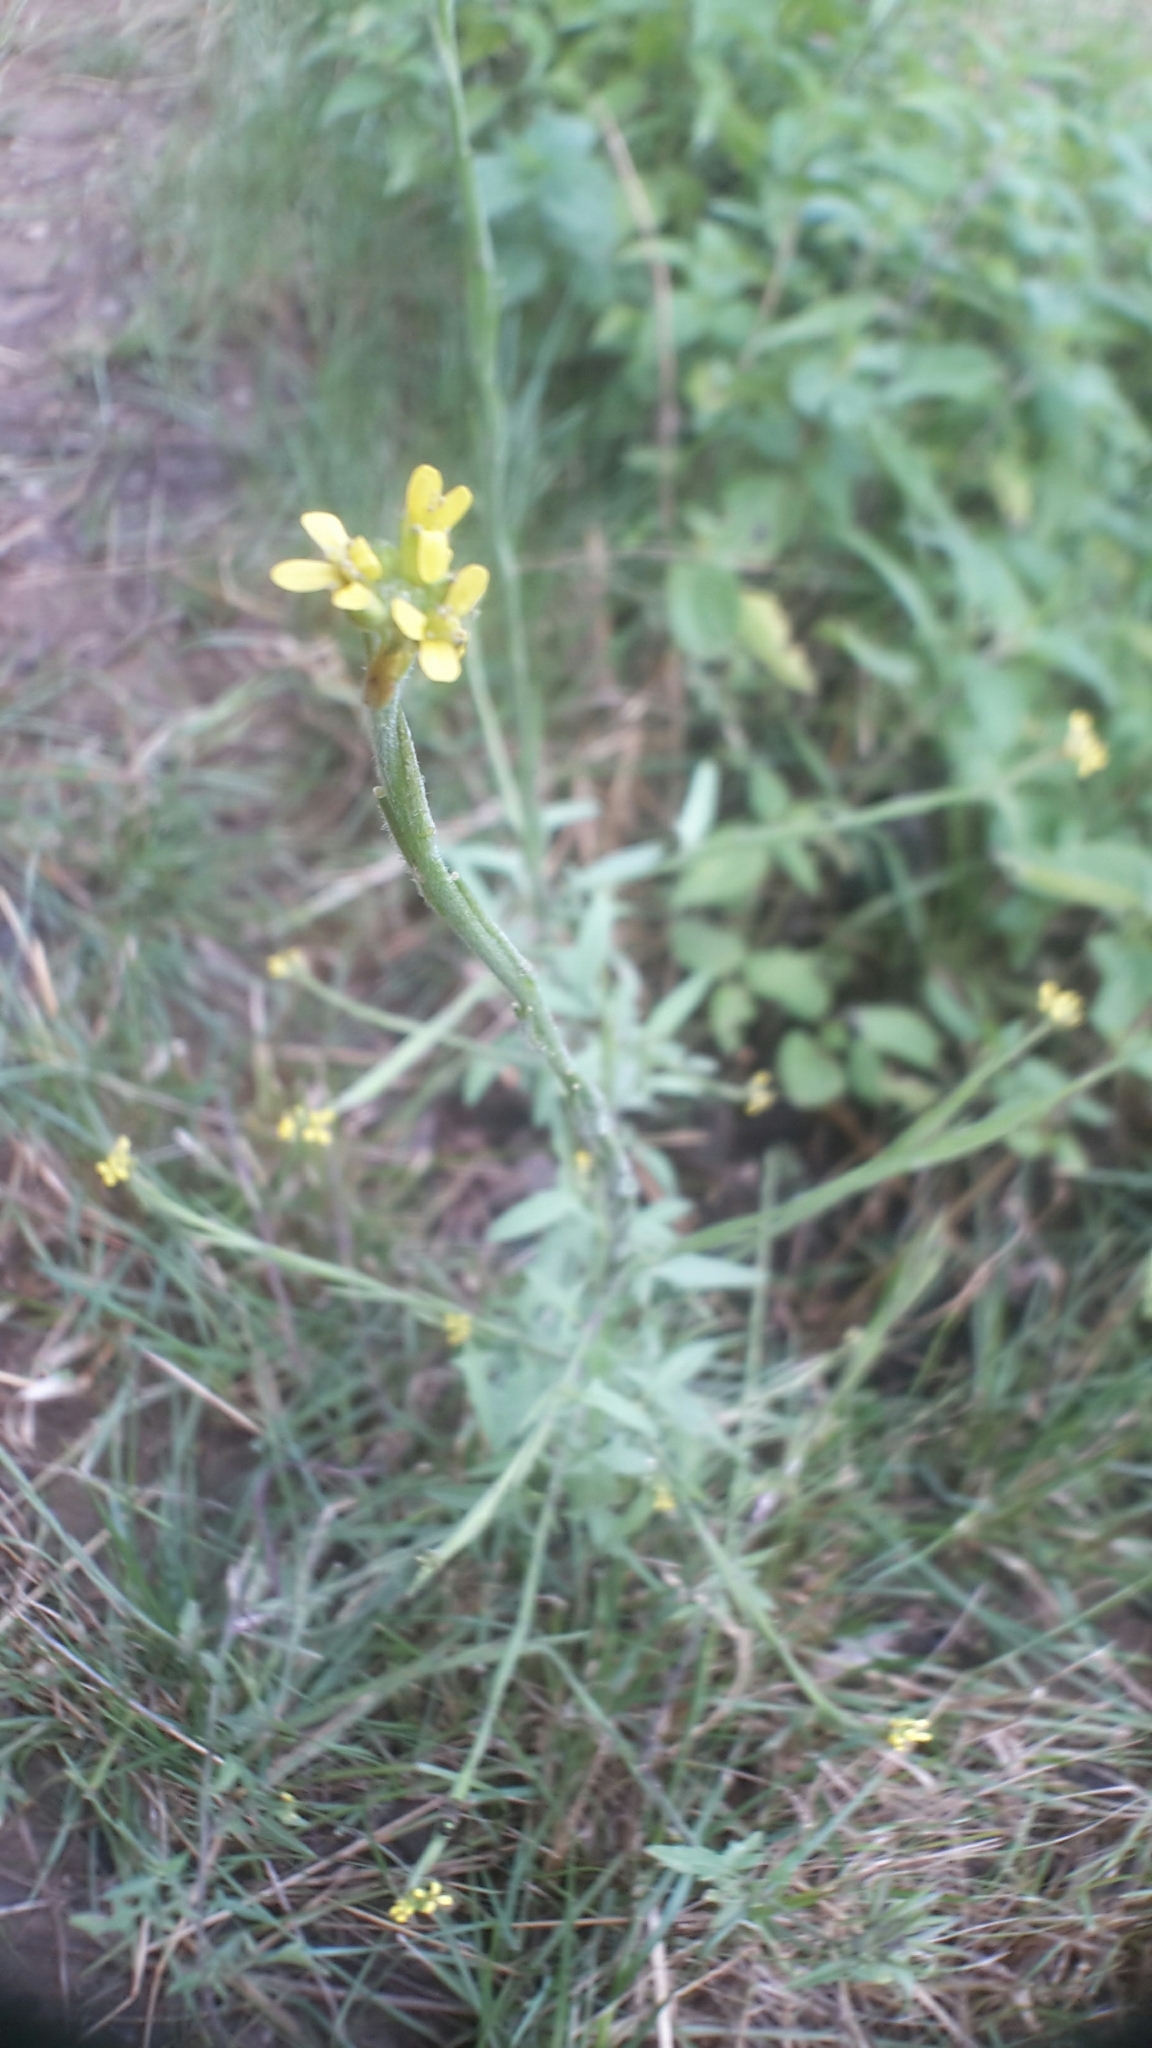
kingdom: Plantae
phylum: Tracheophyta
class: Magnoliopsida
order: Brassicales
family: Brassicaceae
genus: Sisymbrium
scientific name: Sisymbrium officinale
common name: Hedge mustard
